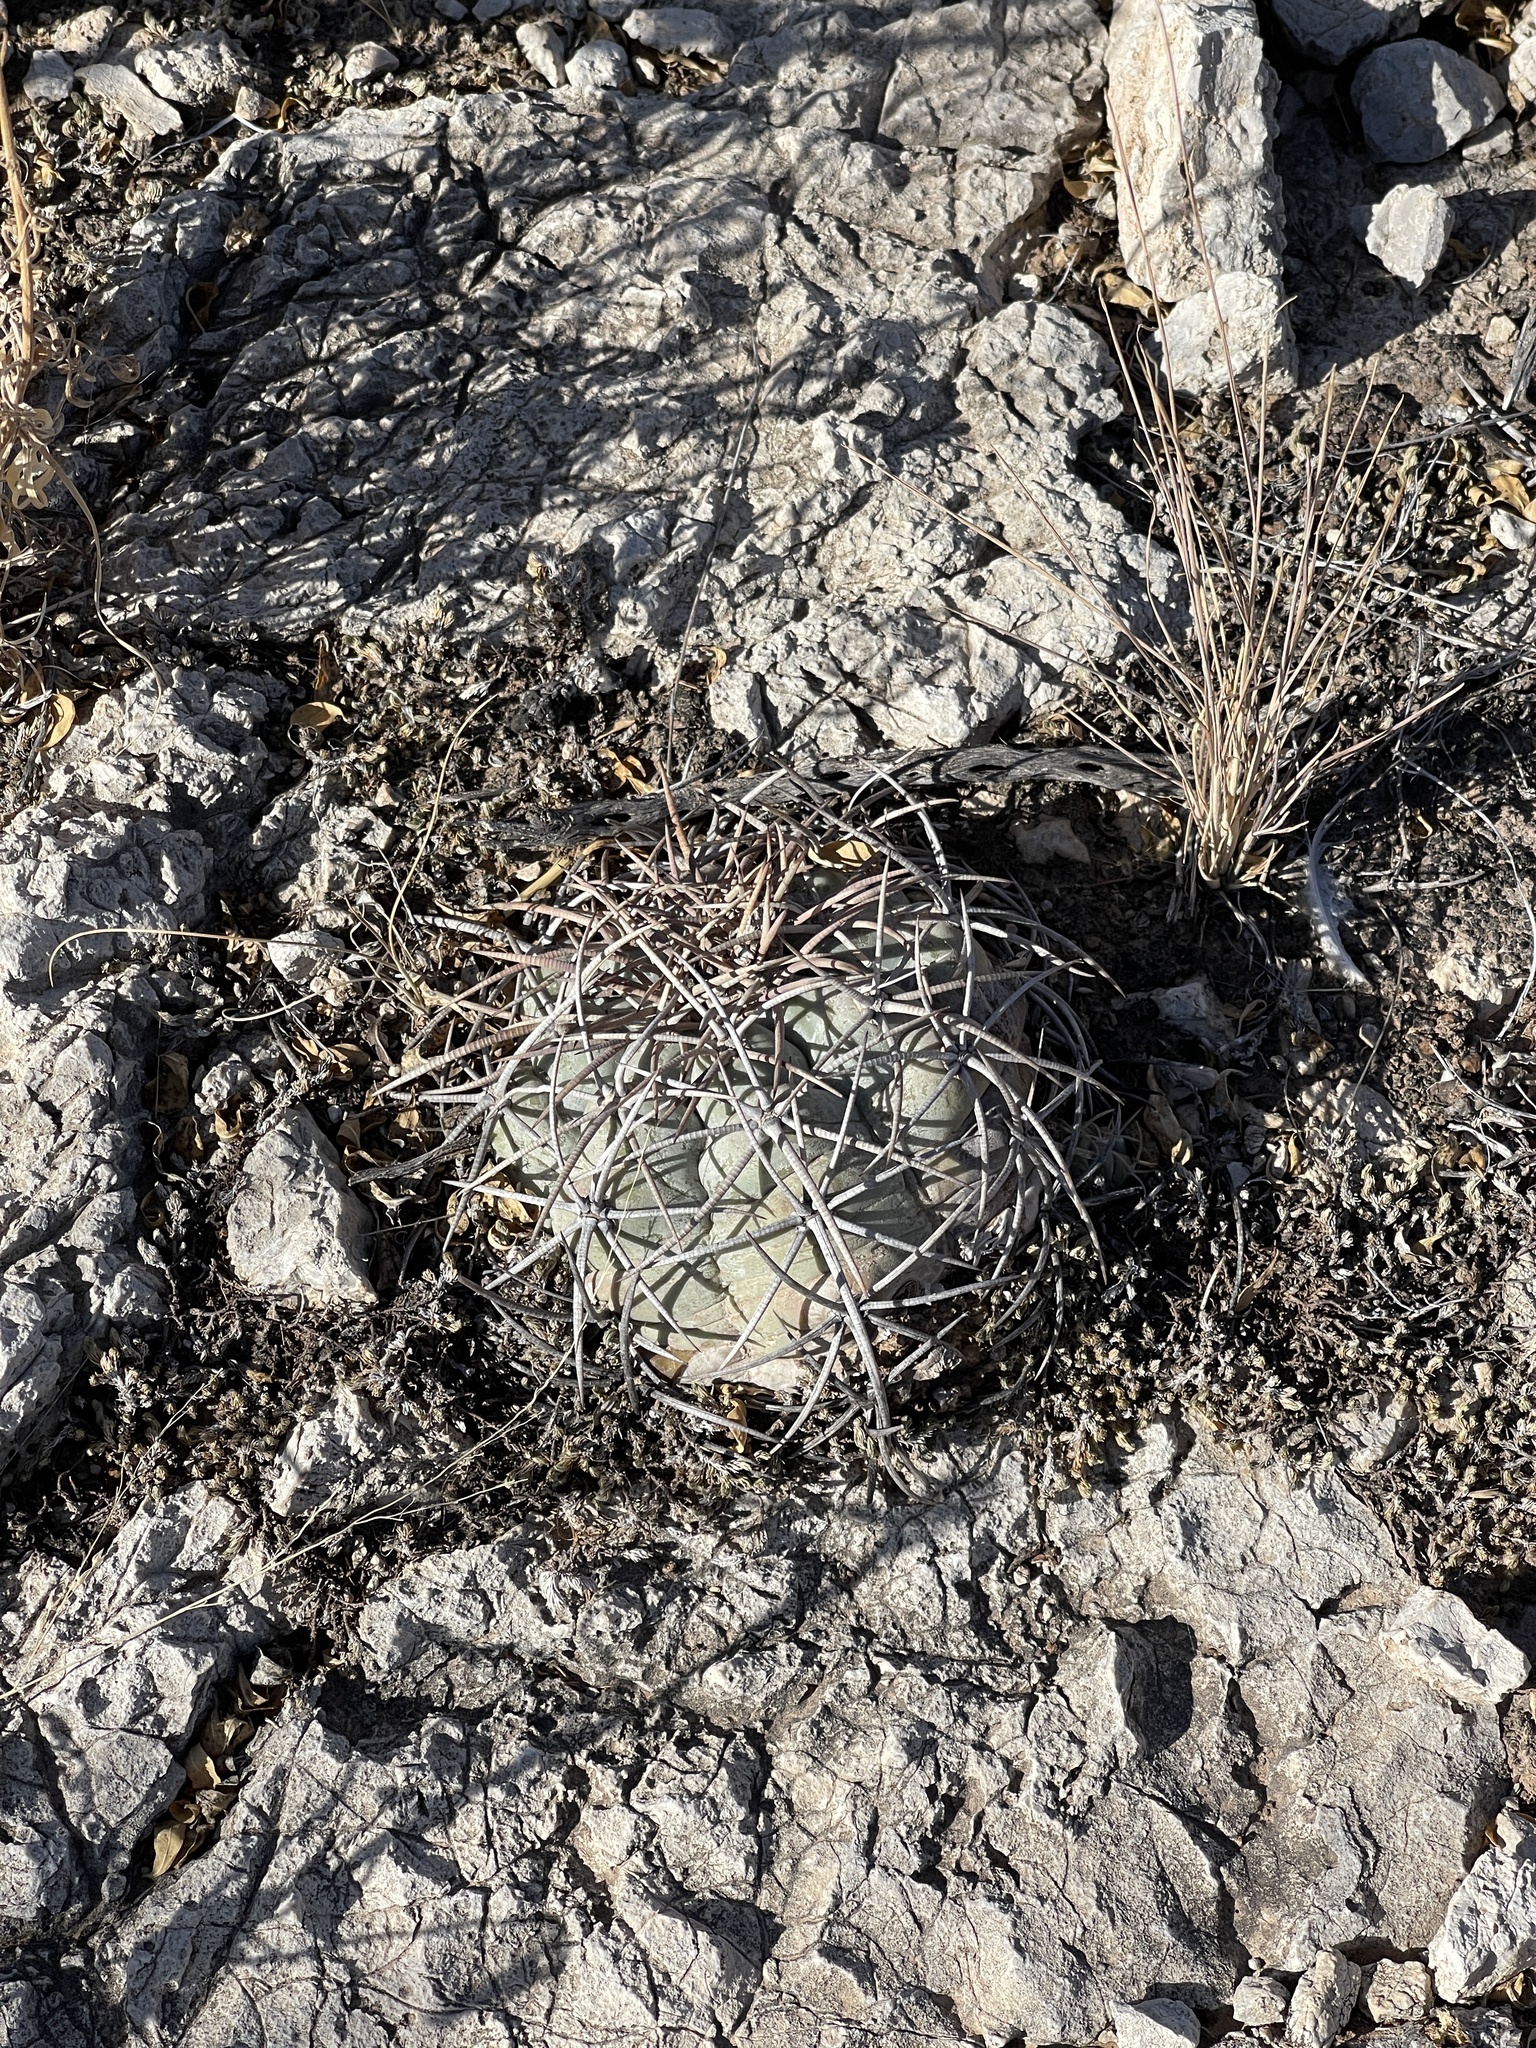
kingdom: Plantae
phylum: Tracheophyta
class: Magnoliopsida
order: Caryophyllales
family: Cactaceae
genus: Echinocactus
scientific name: Echinocactus horizonthalonius
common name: Devilshead
